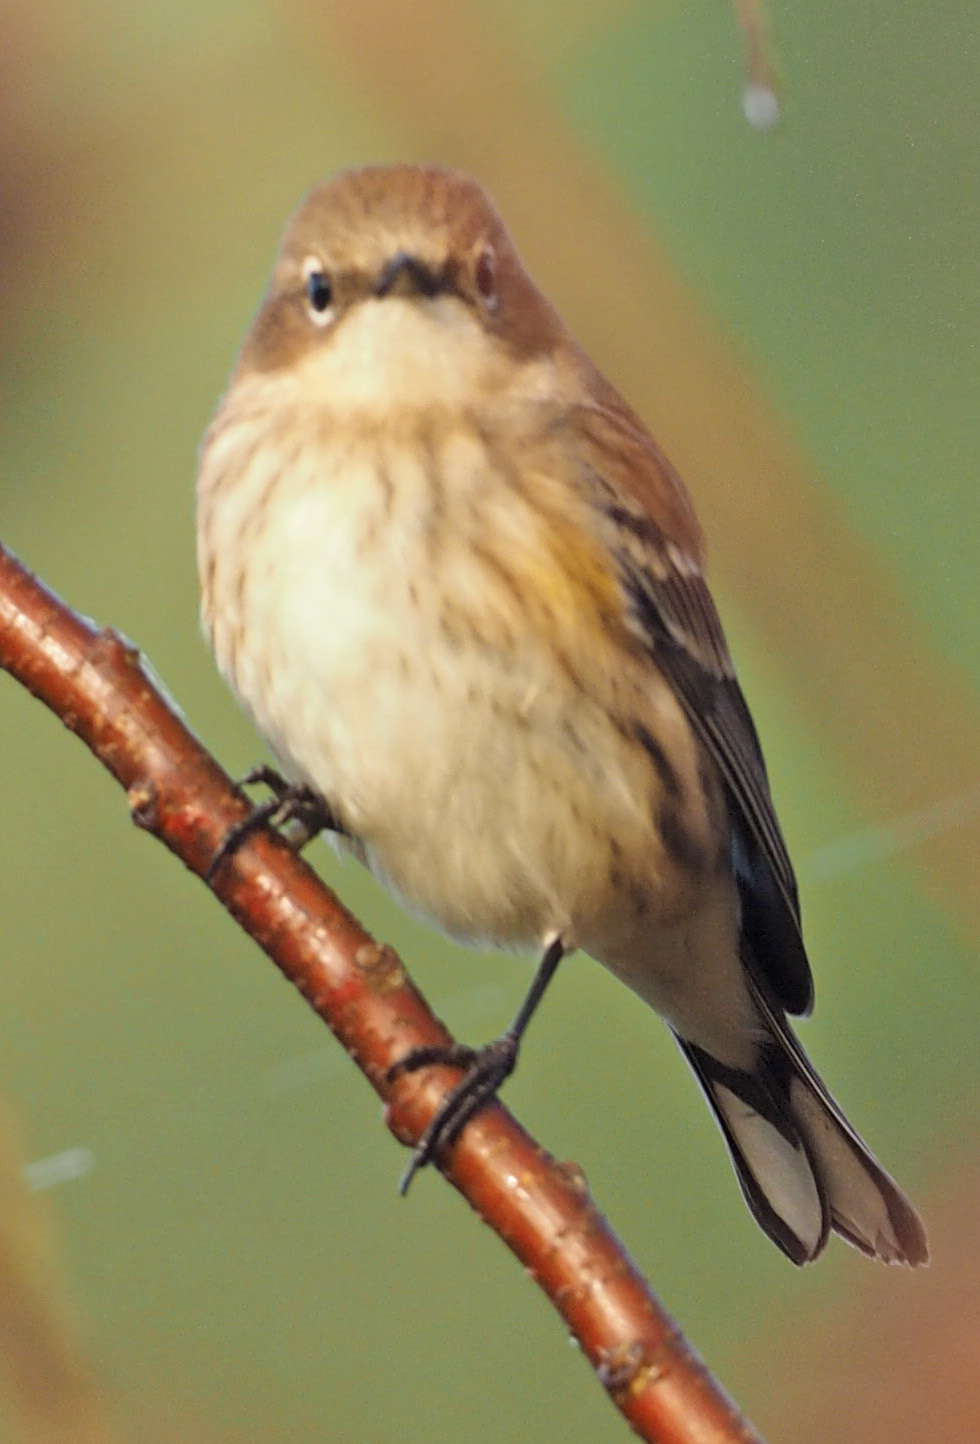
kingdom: Animalia
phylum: Chordata
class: Aves
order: Passeriformes
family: Parulidae
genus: Setophaga
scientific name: Setophaga coronata
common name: Myrtle warbler
